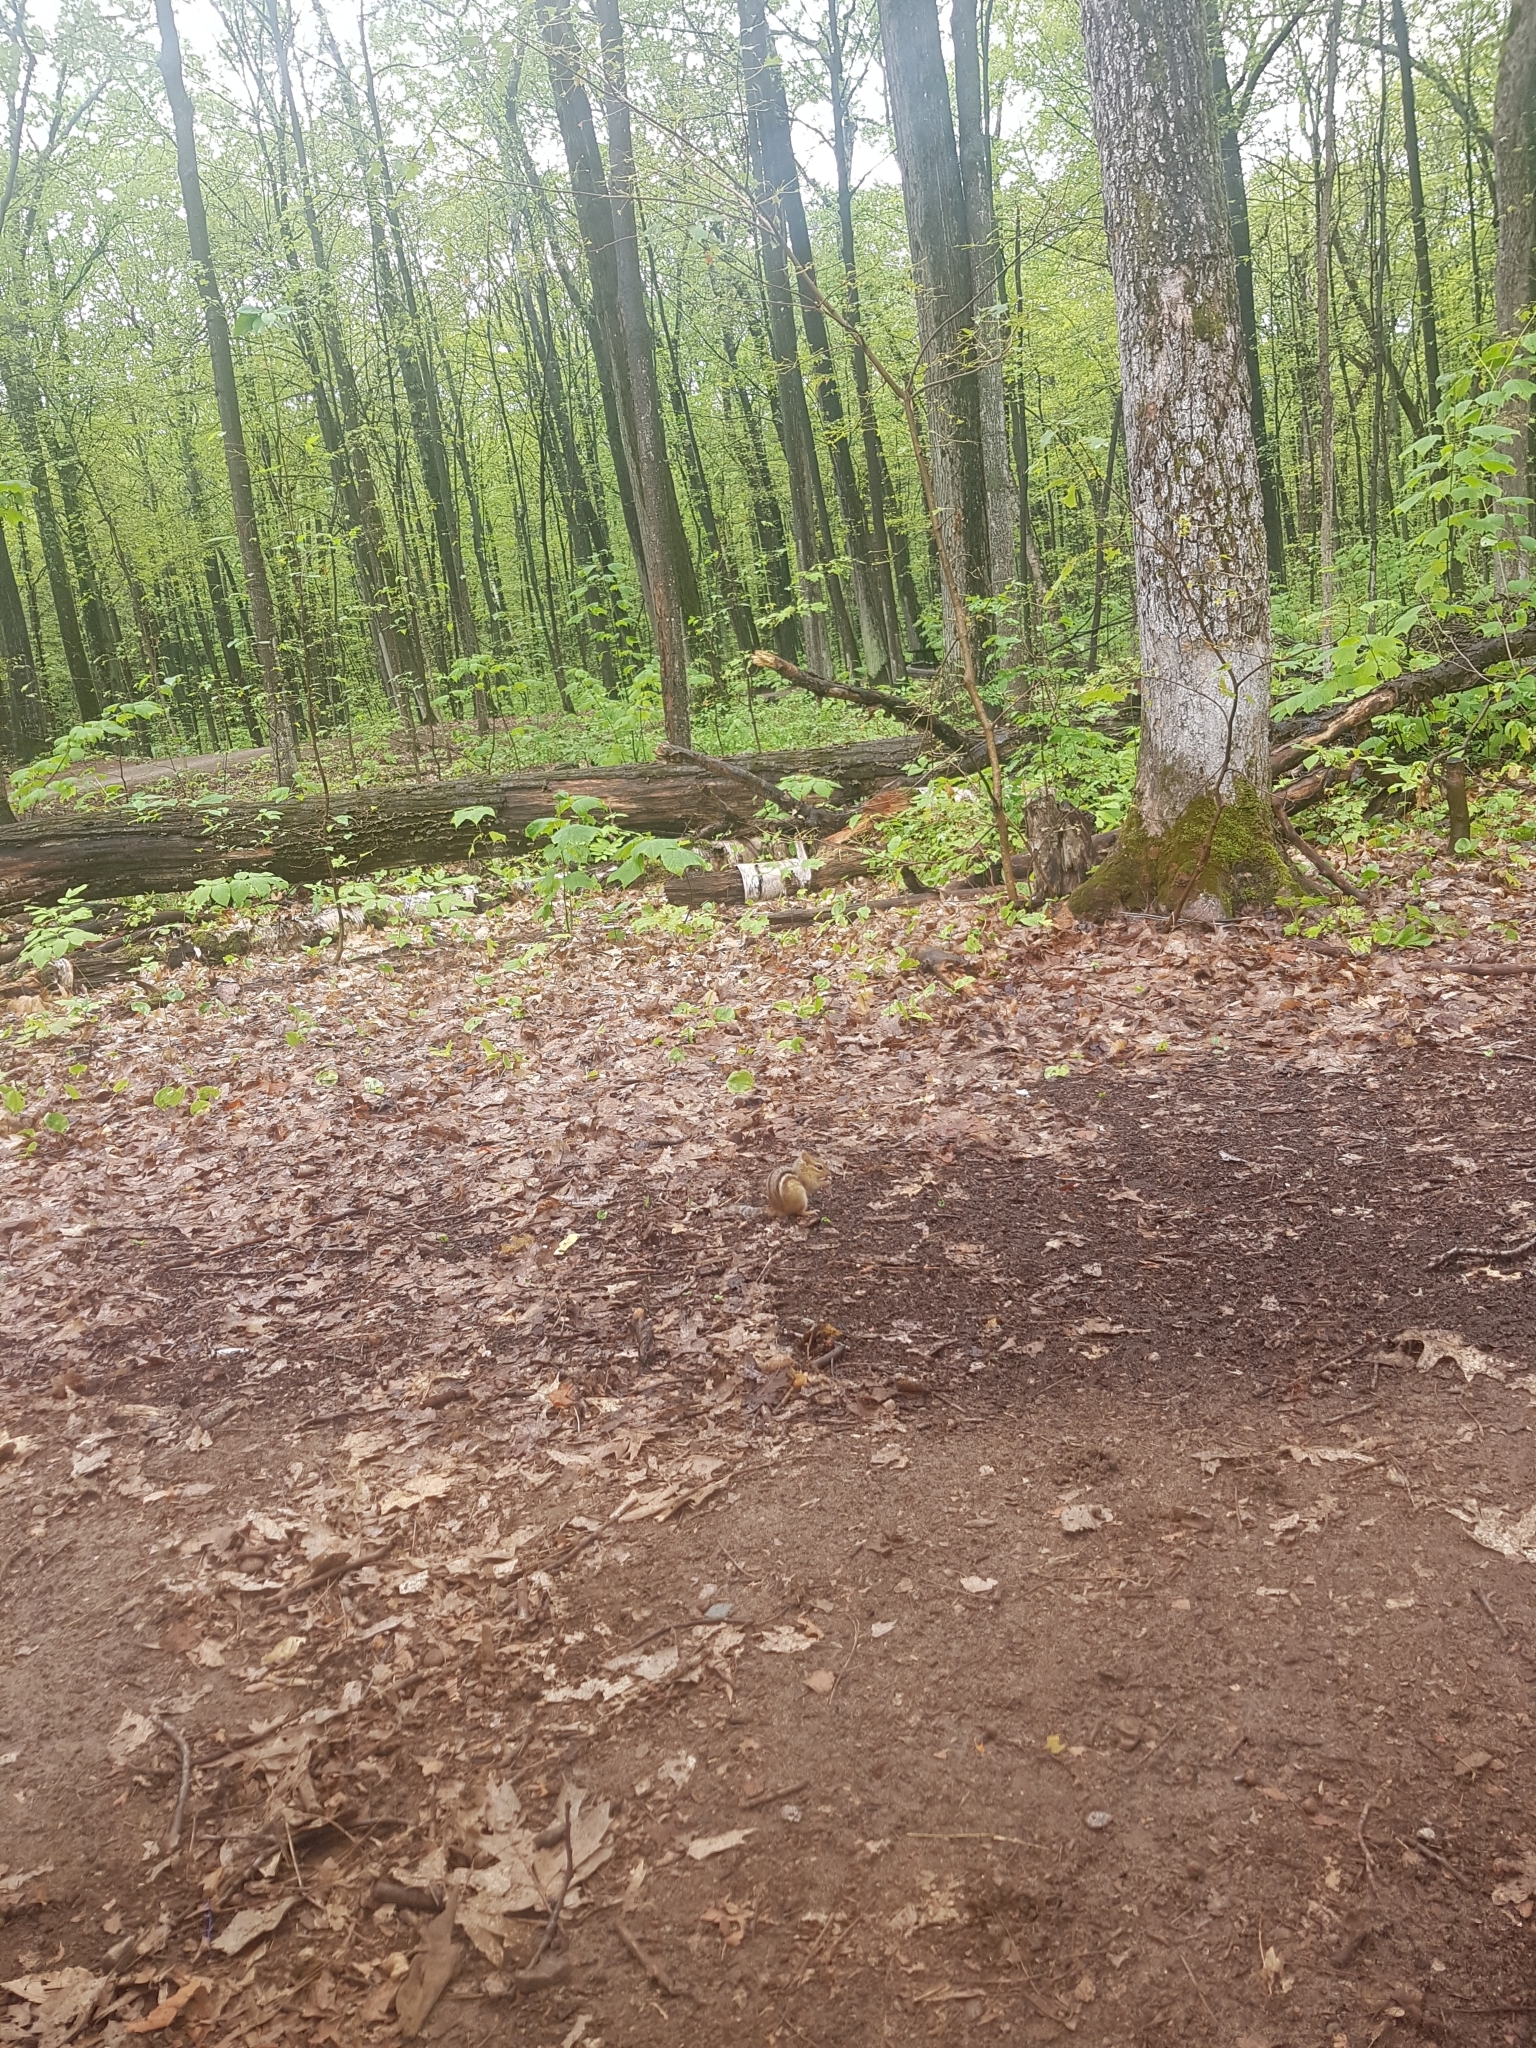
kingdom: Animalia
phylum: Chordata
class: Mammalia
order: Rodentia
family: Sciuridae
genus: Tamias
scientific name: Tamias striatus
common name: Eastern chipmunk
